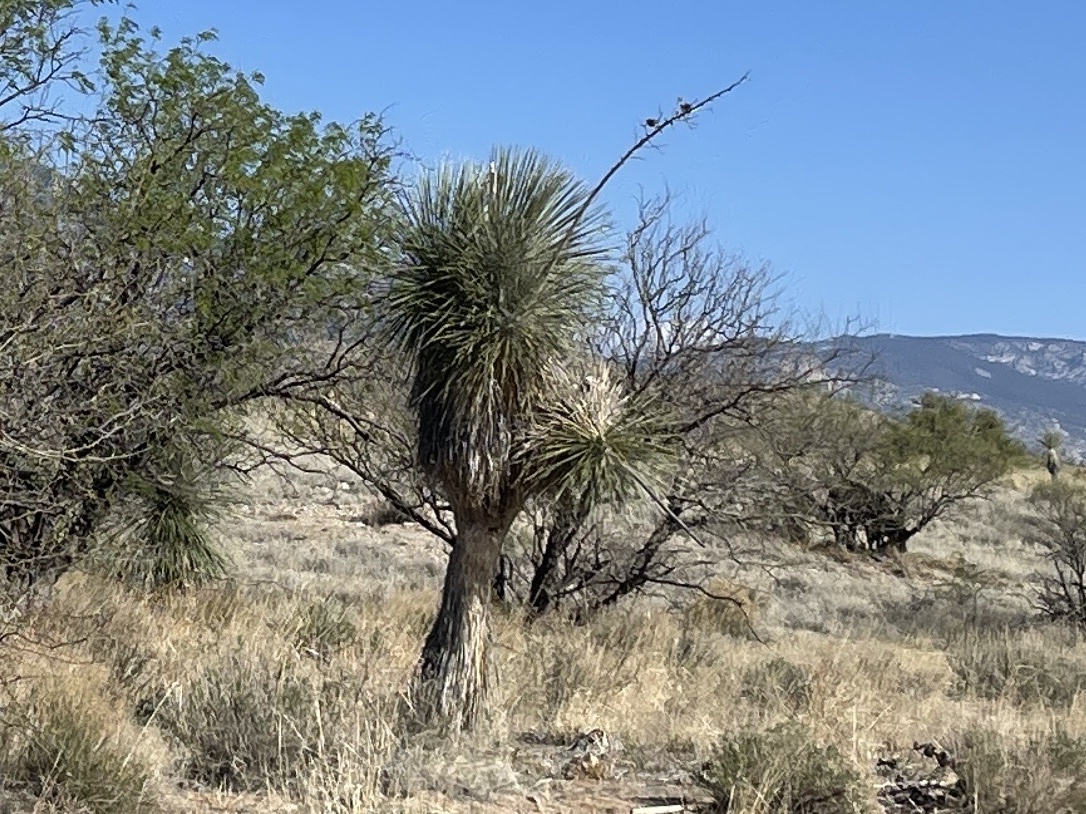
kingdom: Plantae
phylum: Tracheophyta
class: Liliopsida
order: Asparagales
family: Asparagaceae
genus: Yucca
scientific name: Yucca elata
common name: Palmella
